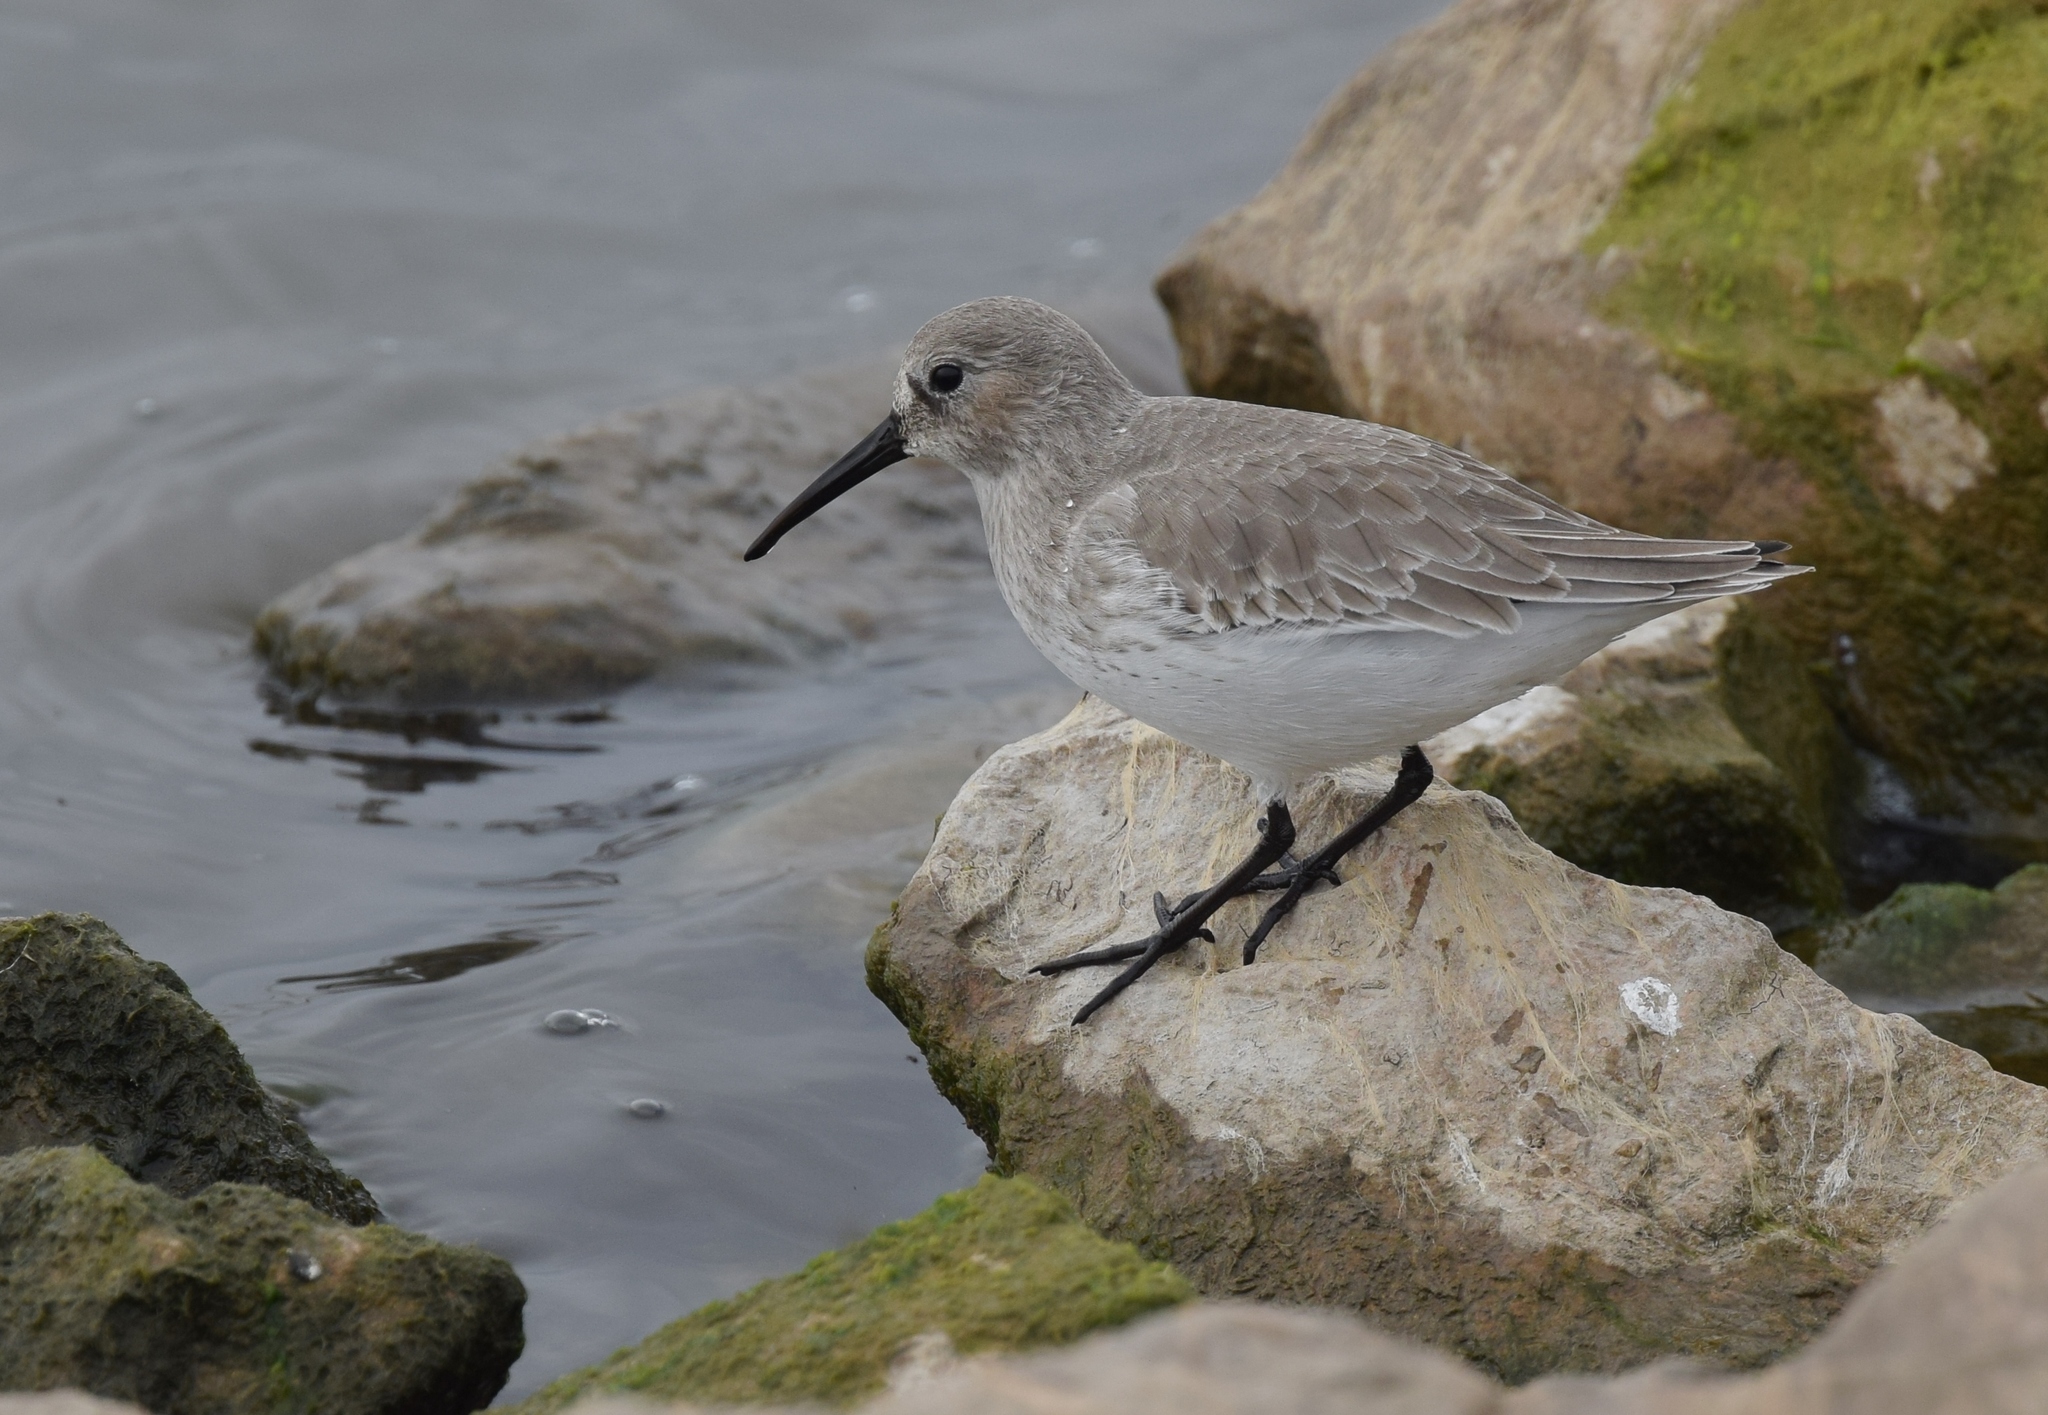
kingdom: Animalia
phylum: Chordata
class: Aves
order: Charadriiformes
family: Scolopacidae
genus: Calidris
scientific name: Calidris alpina
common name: Dunlin
